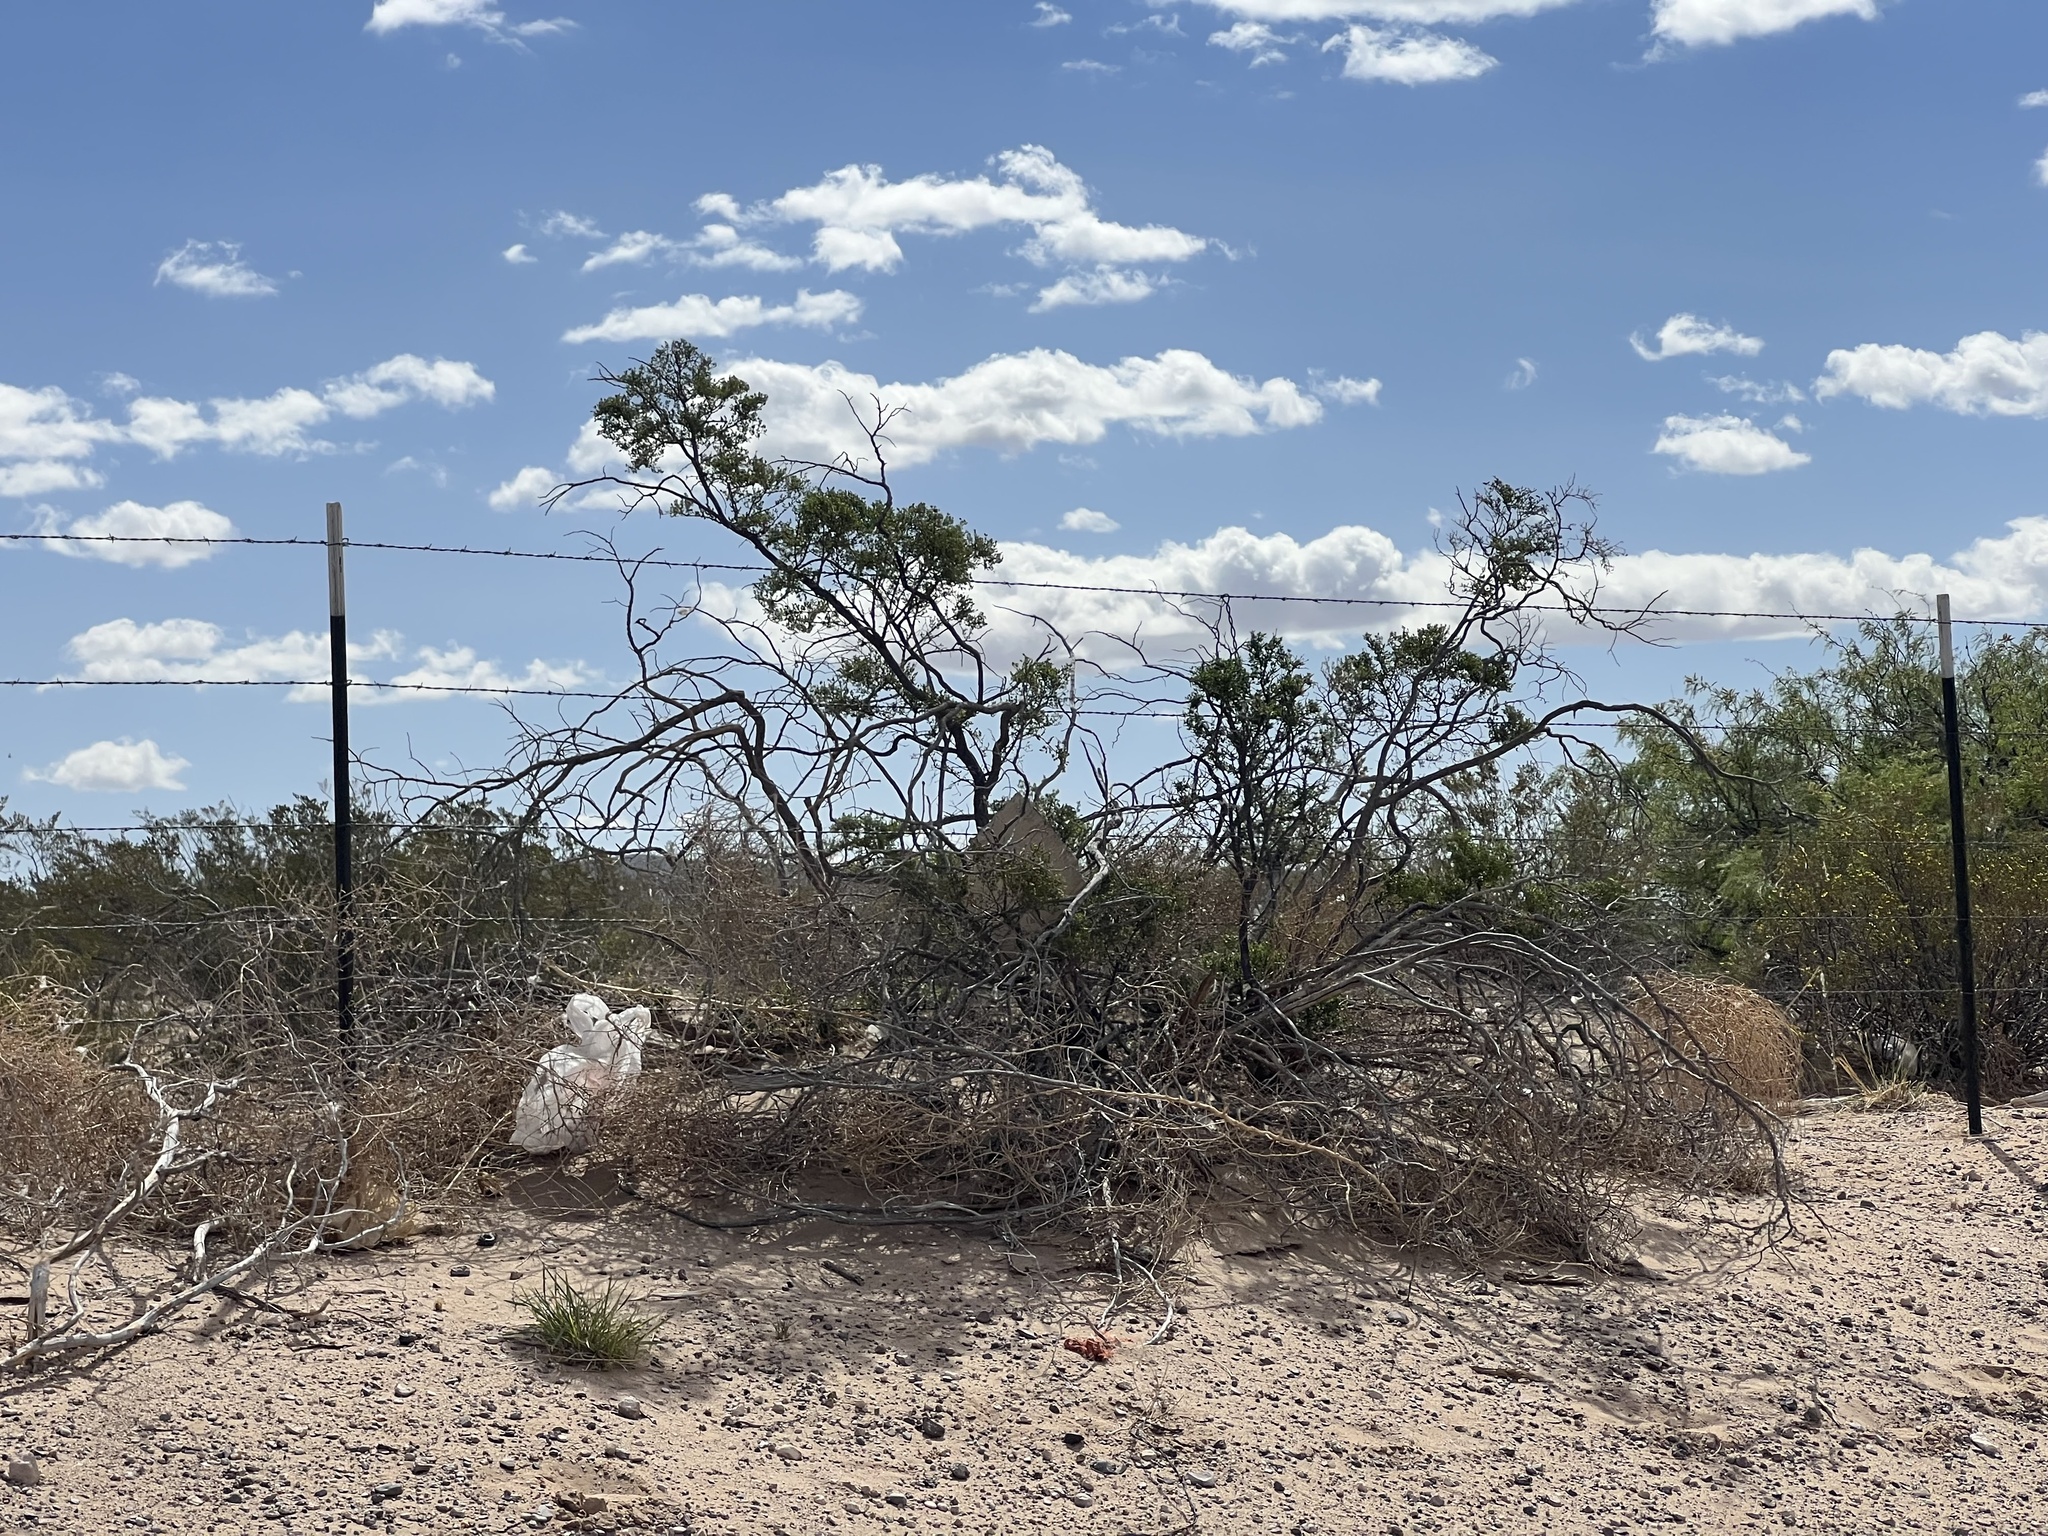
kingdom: Plantae
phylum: Tracheophyta
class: Magnoliopsida
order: Zygophyllales
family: Zygophyllaceae
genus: Larrea
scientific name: Larrea tridentata
